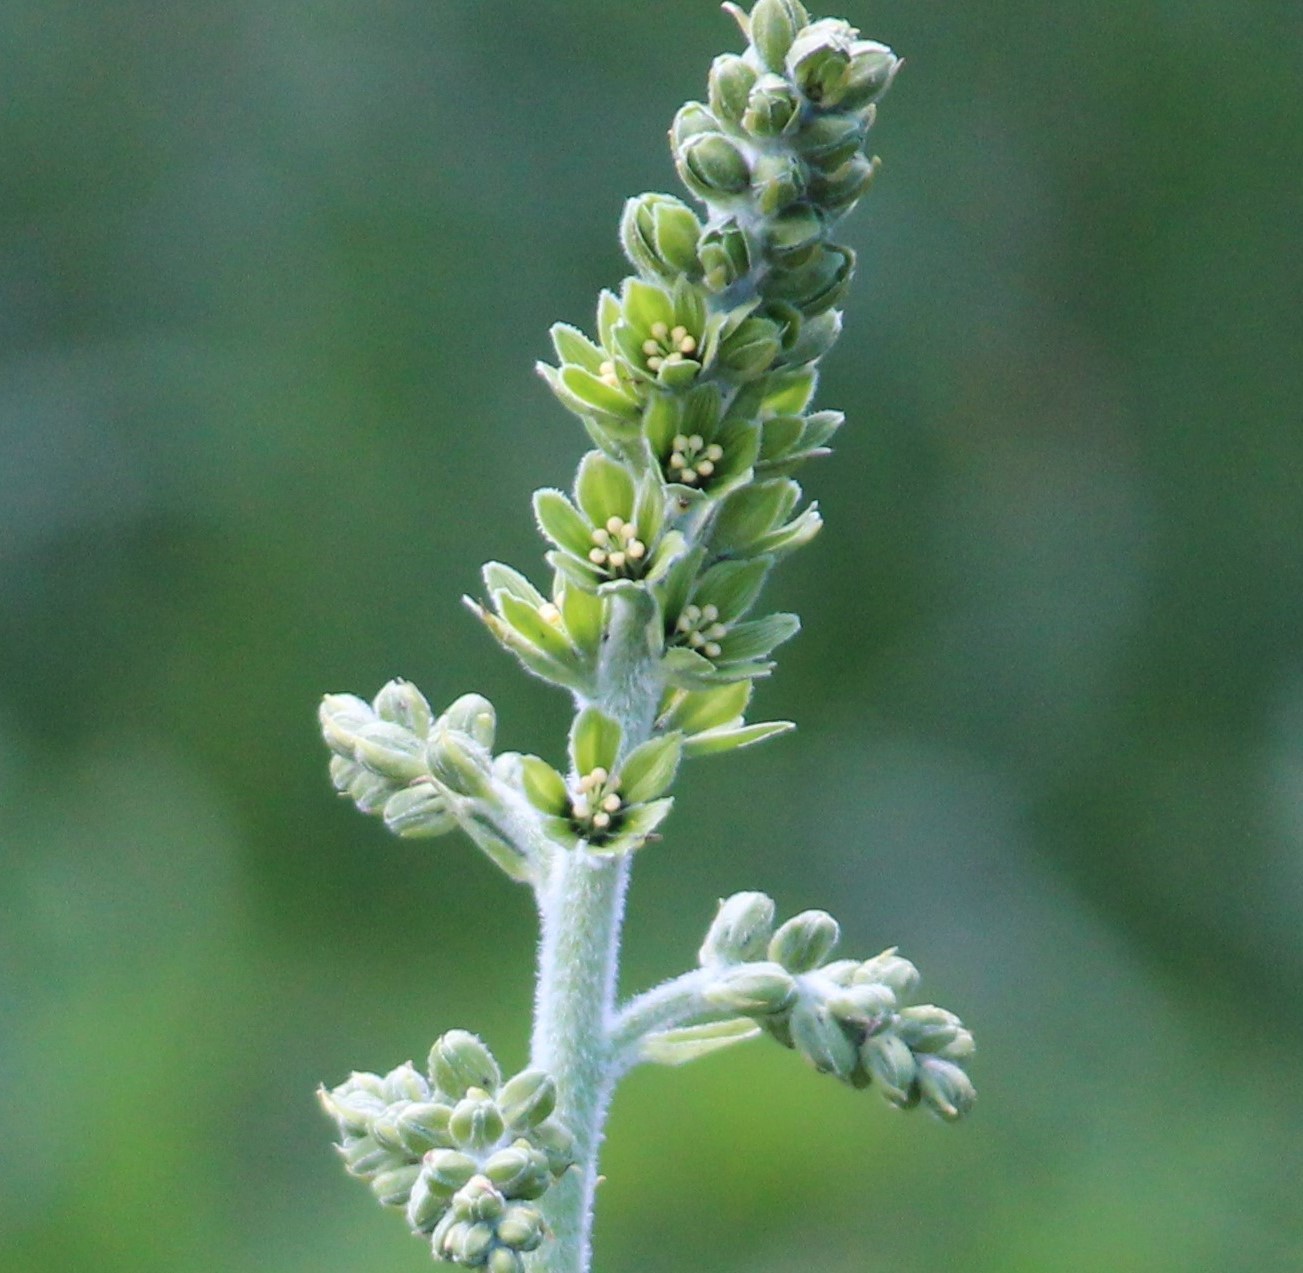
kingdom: Plantae
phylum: Tracheophyta
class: Liliopsida
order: Liliales
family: Melanthiaceae
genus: Veratrum
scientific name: Veratrum viride
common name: American false hellebore
